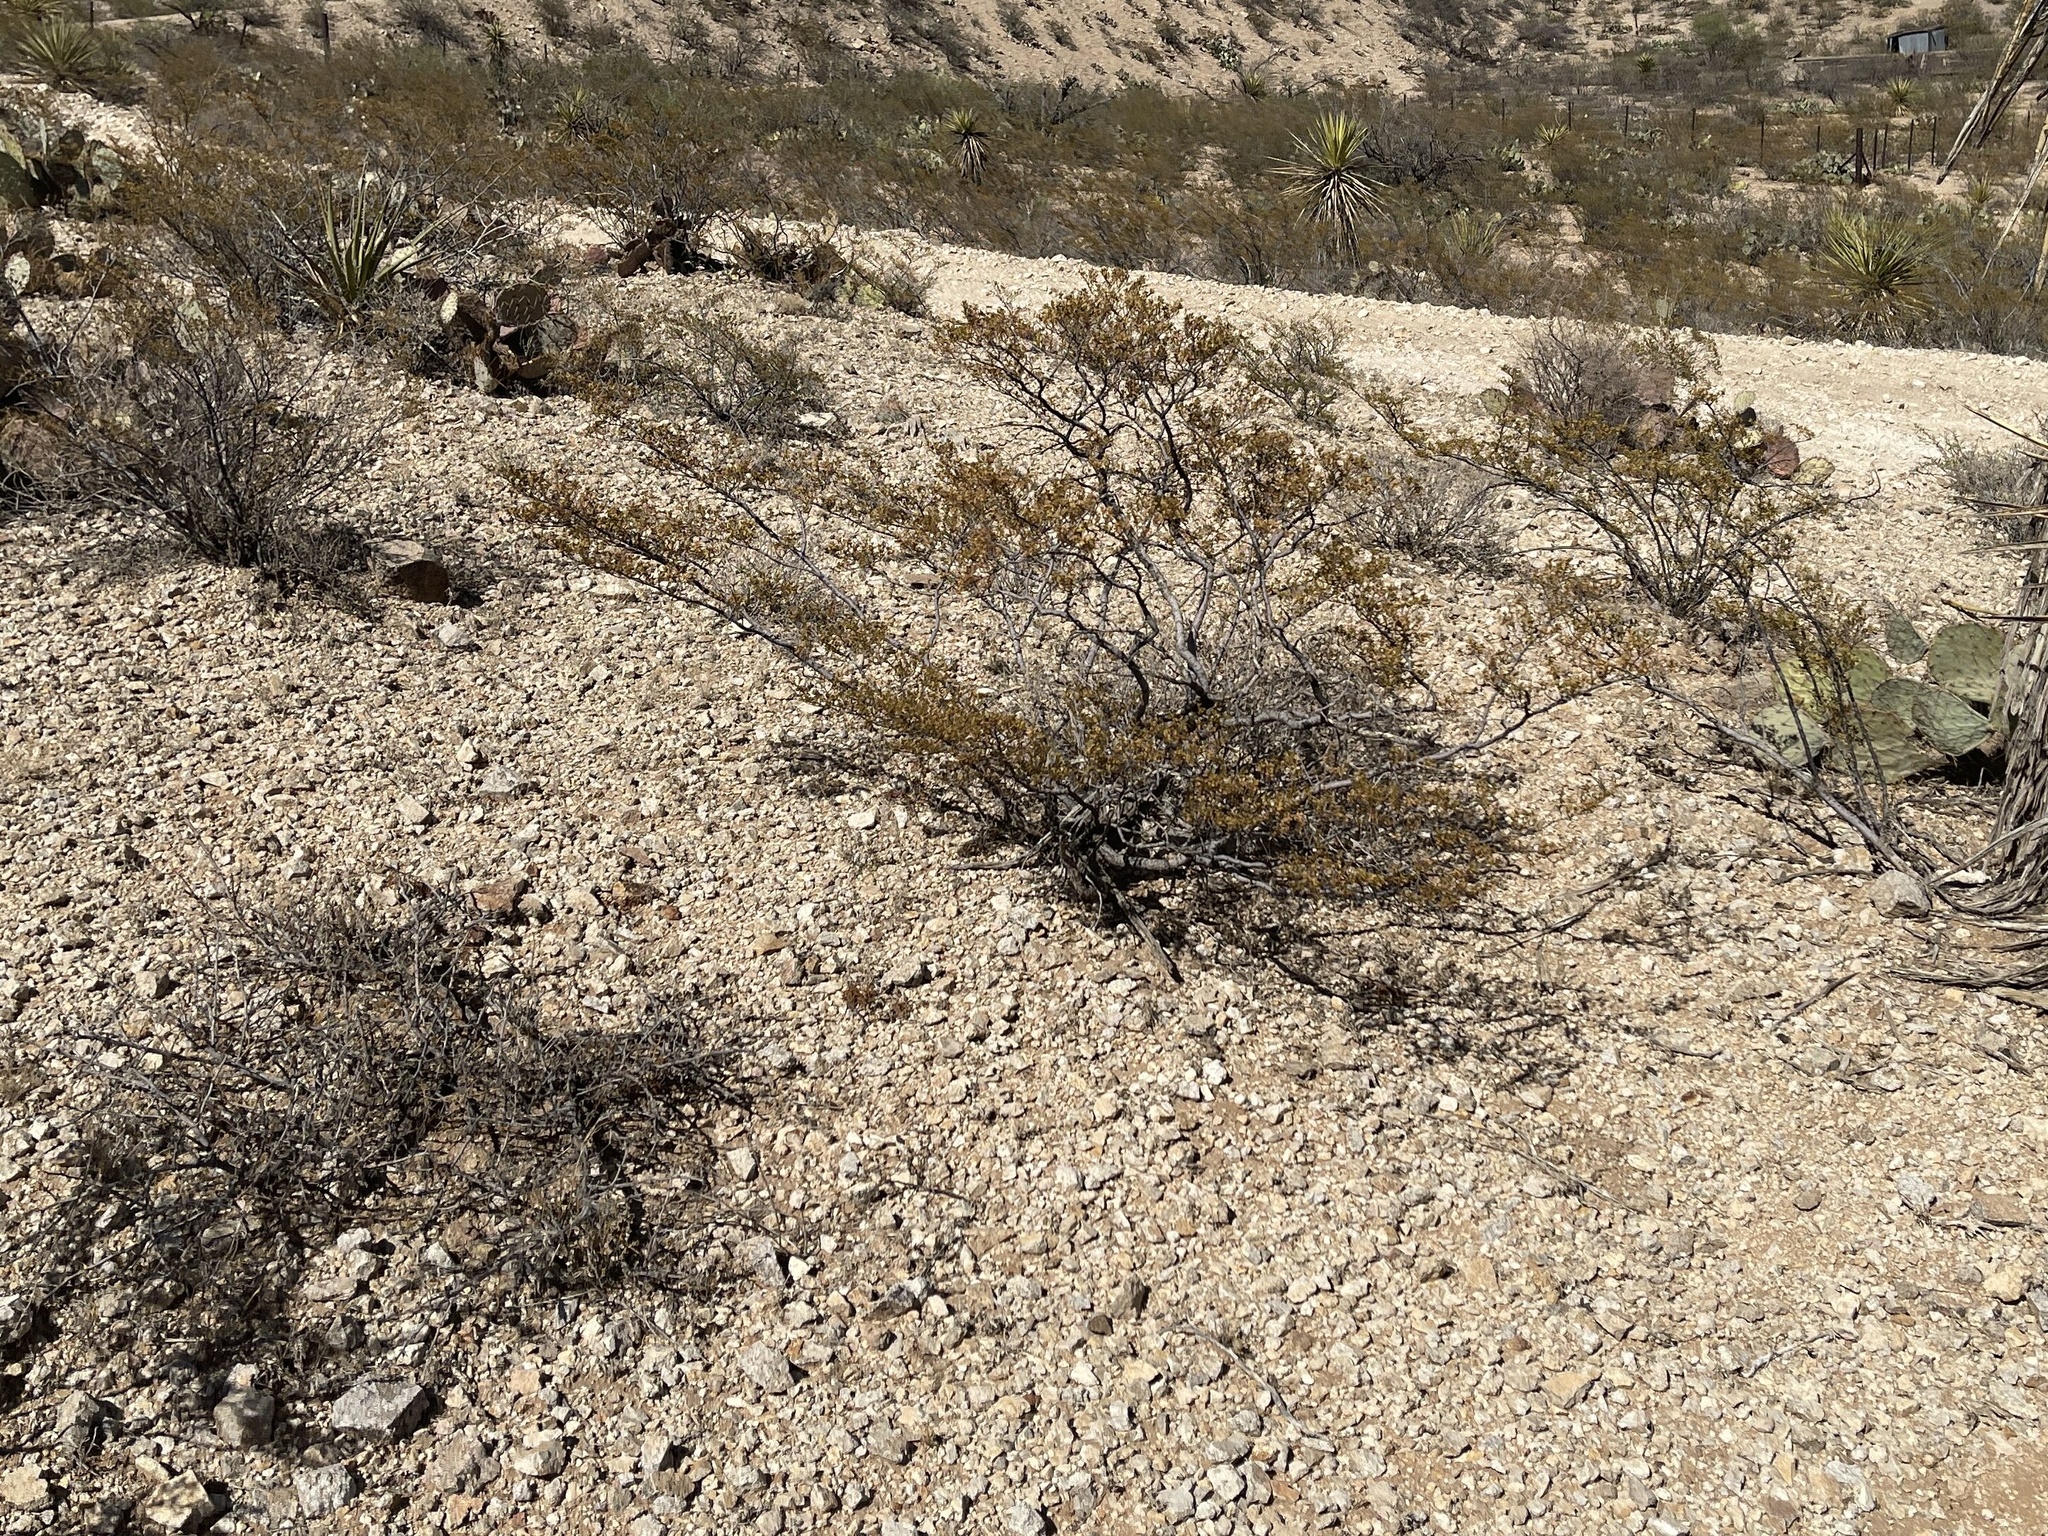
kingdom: Plantae
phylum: Tracheophyta
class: Magnoliopsida
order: Zygophyllales
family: Zygophyllaceae
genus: Larrea
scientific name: Larrea tridentata
